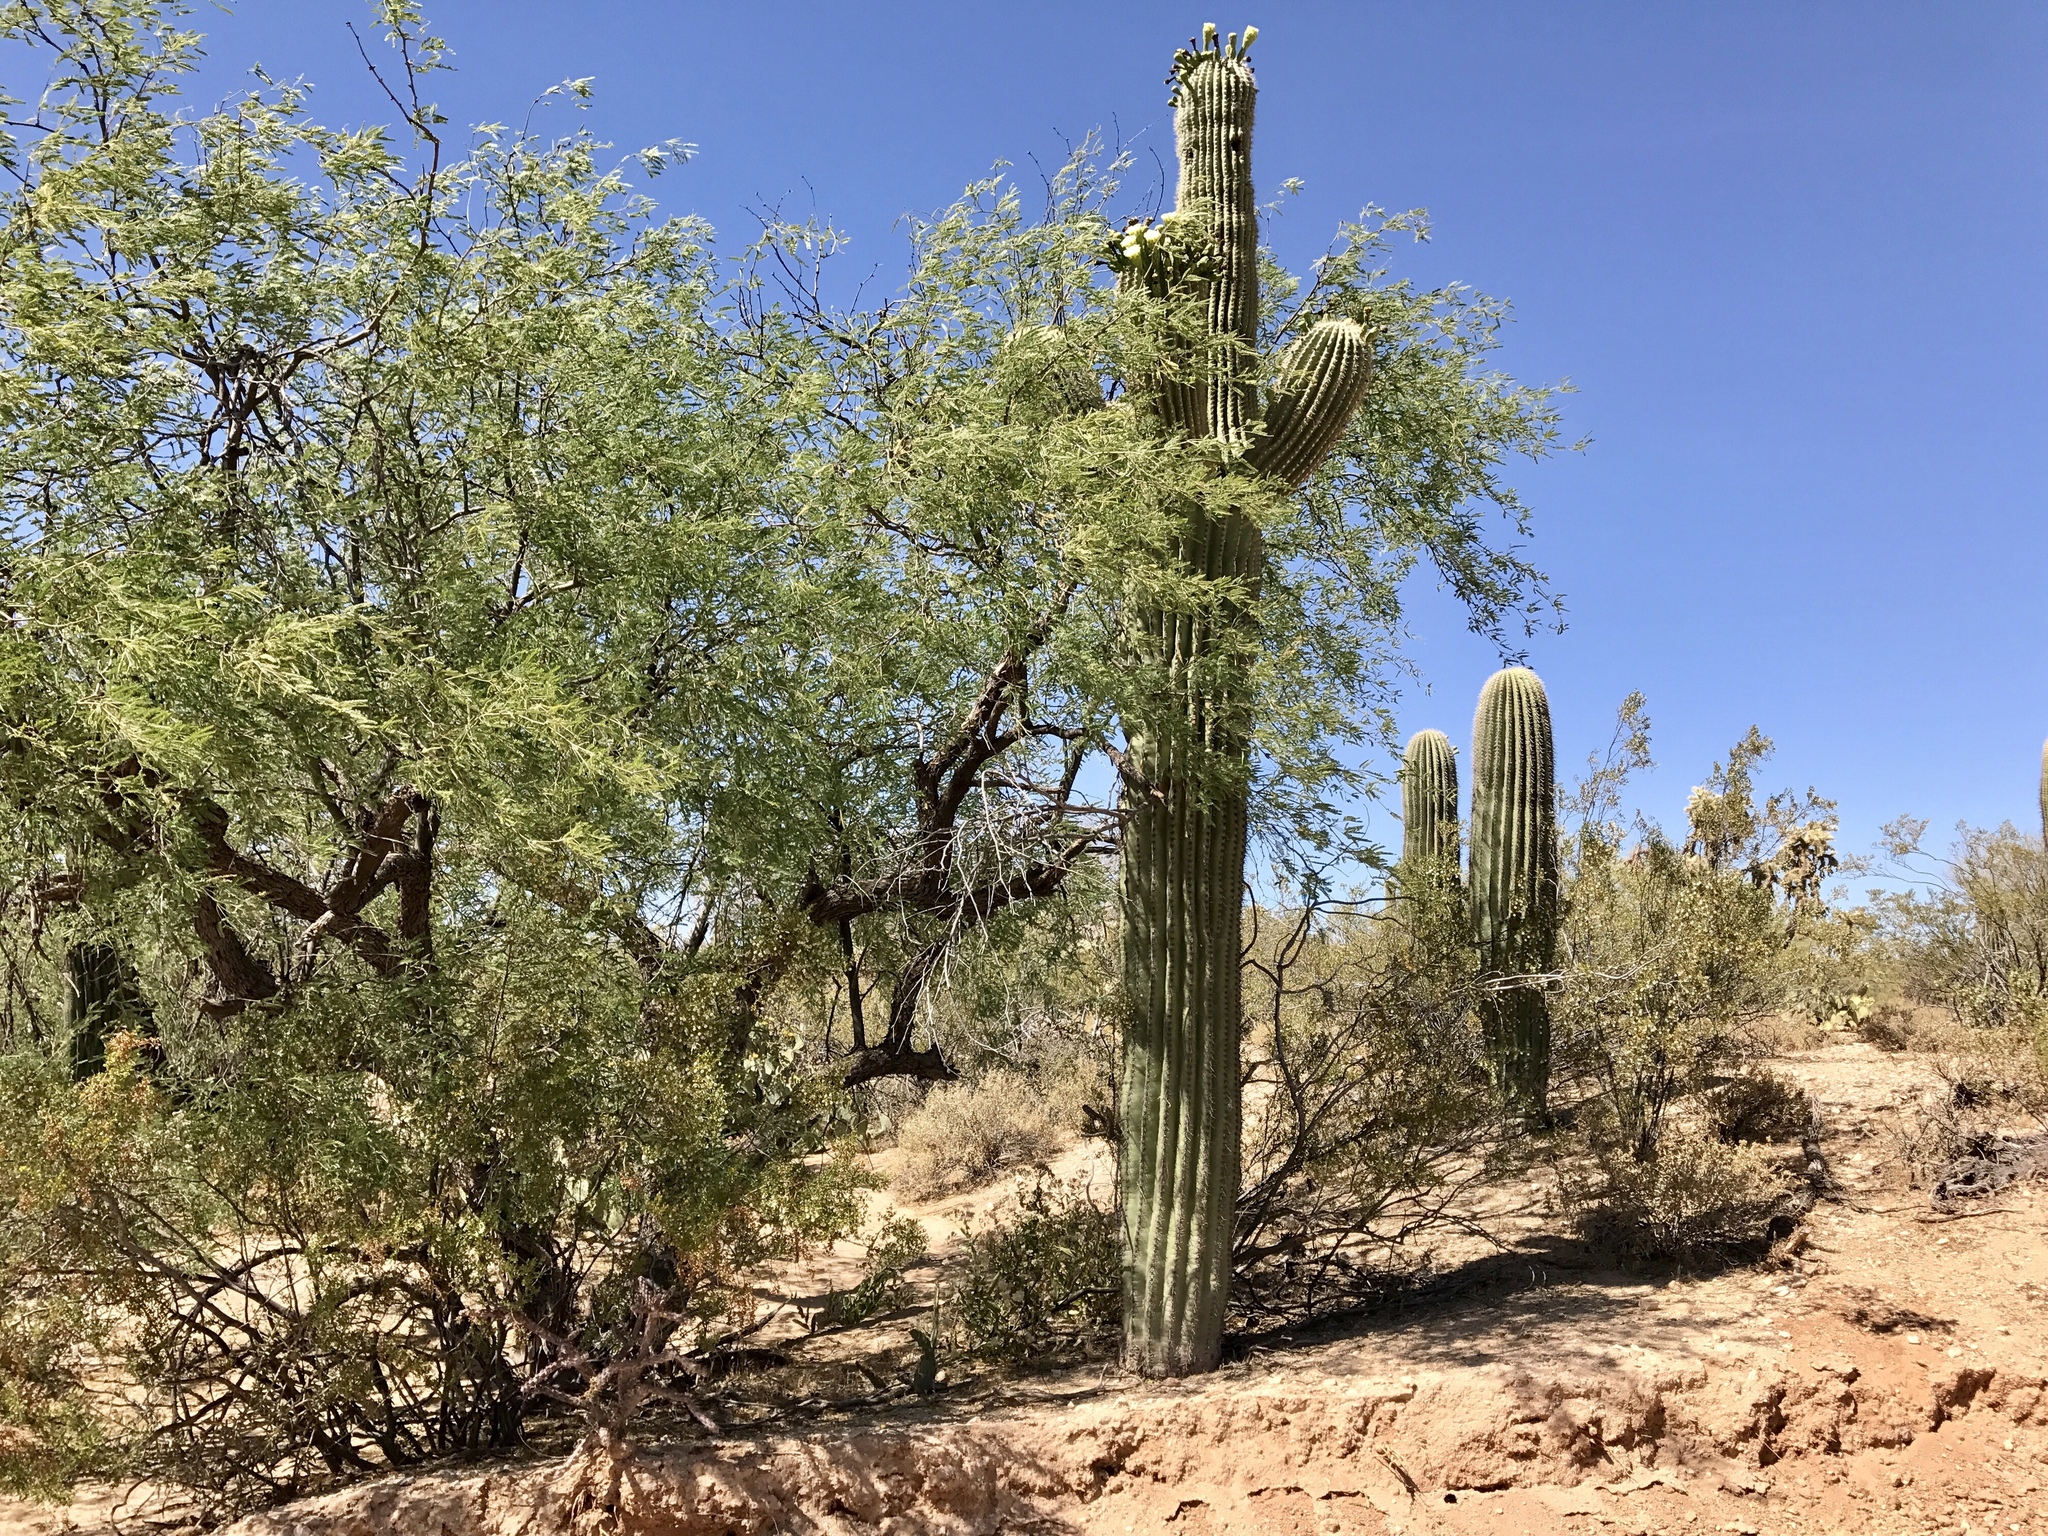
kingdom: Plantae
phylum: Tracheophyta
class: Magnoliopsida
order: Caryophyllales
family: Cactaceae
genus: Carnegiea
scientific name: Carnegiea gigantea
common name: Saguaro
